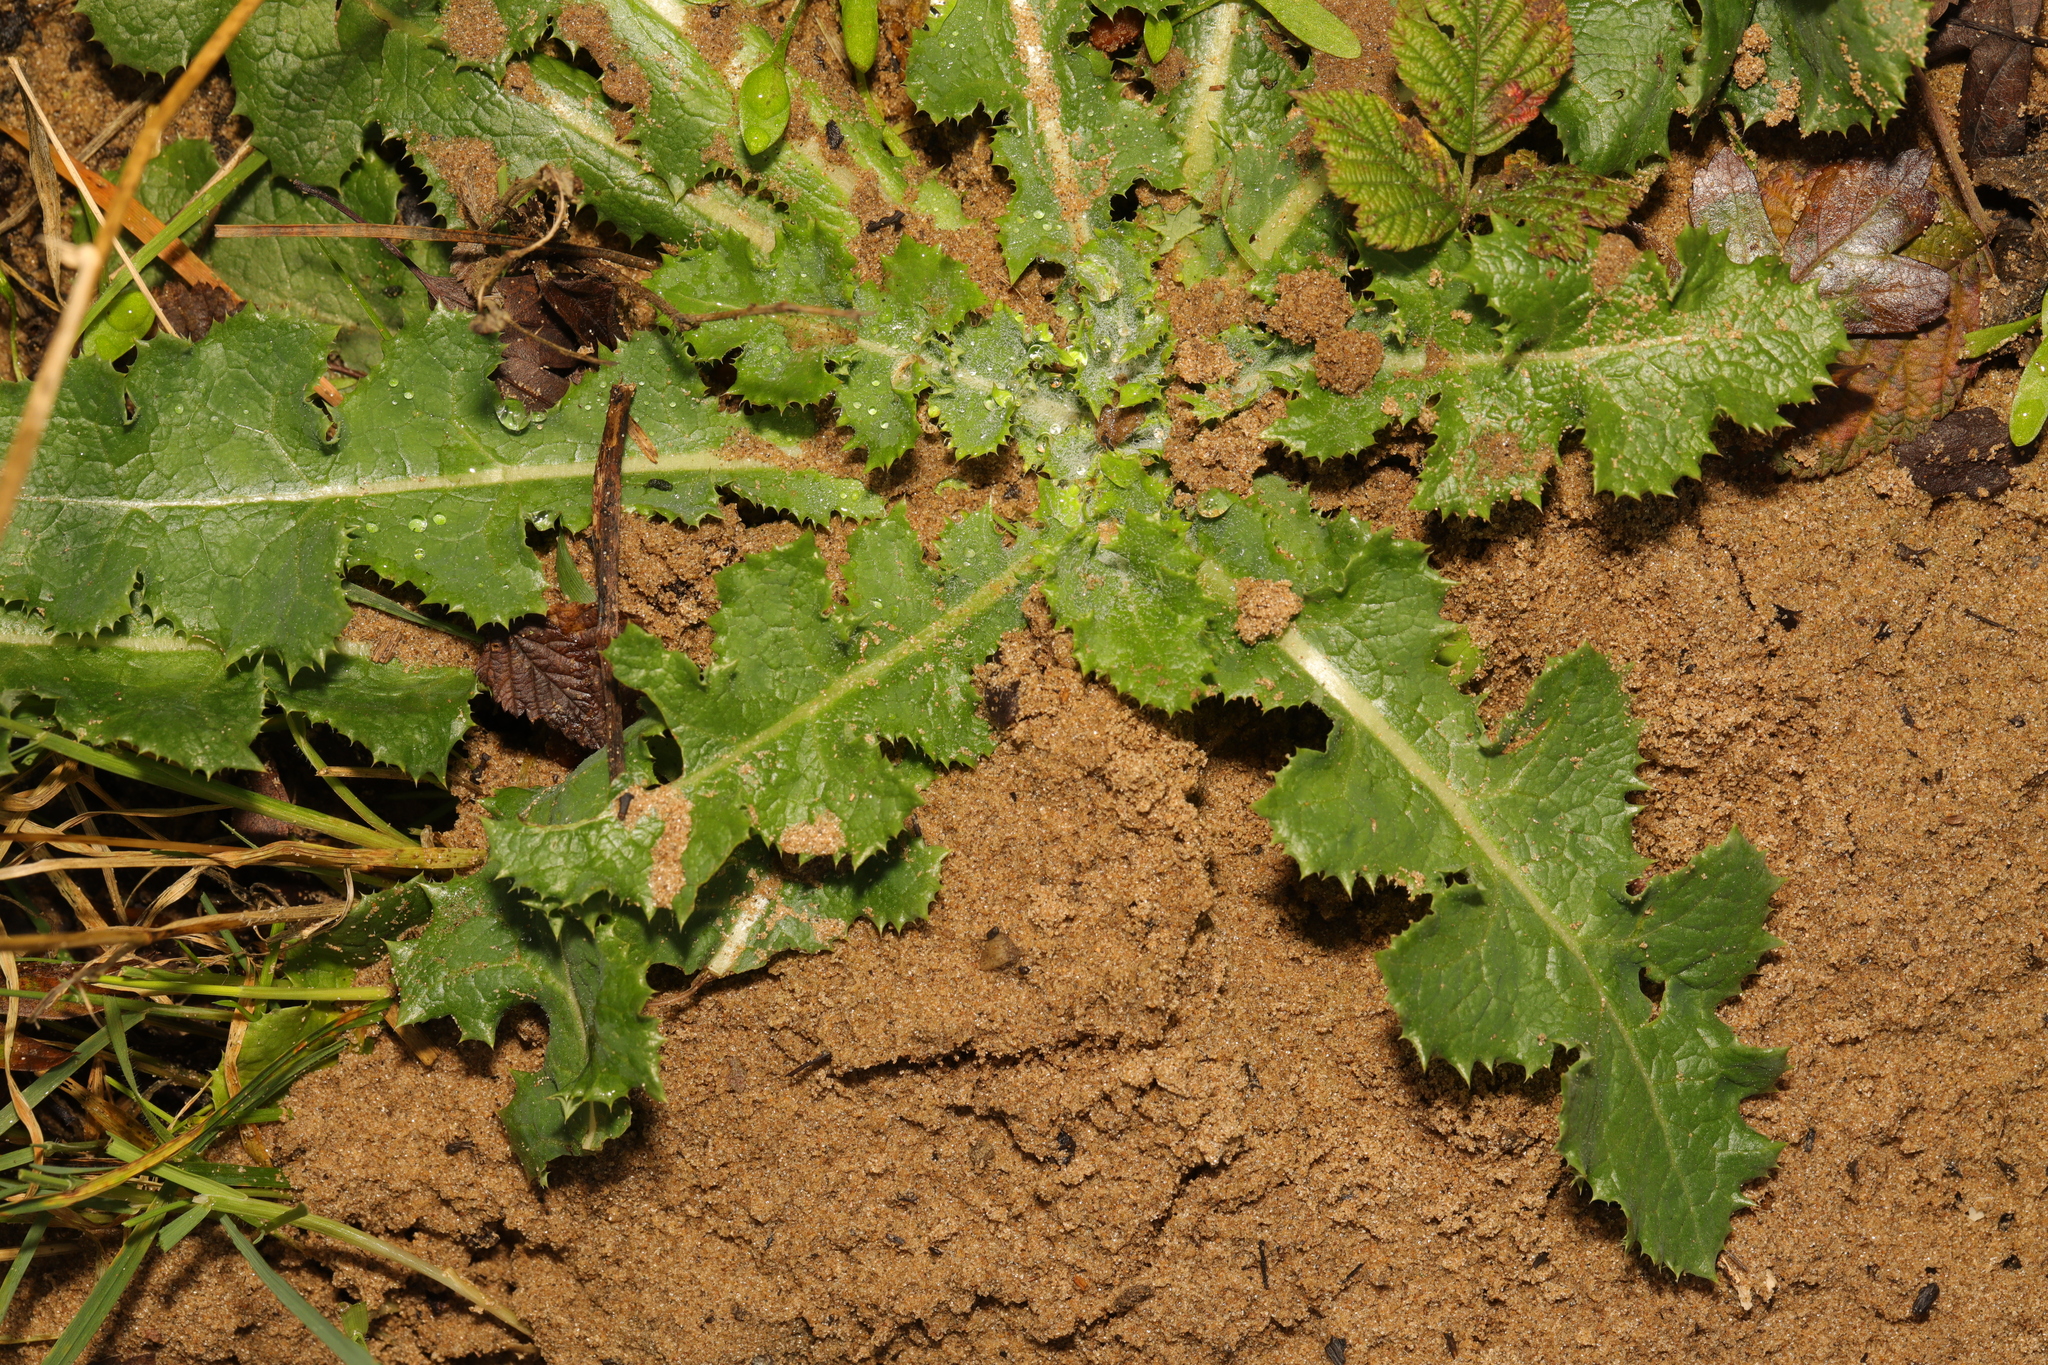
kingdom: Plantae
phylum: Tracheophyta
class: Magnoliopsida
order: Asterales
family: Asteraceae
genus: Sonchus
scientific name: Sonchus asper
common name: Prickly sow-thistle
